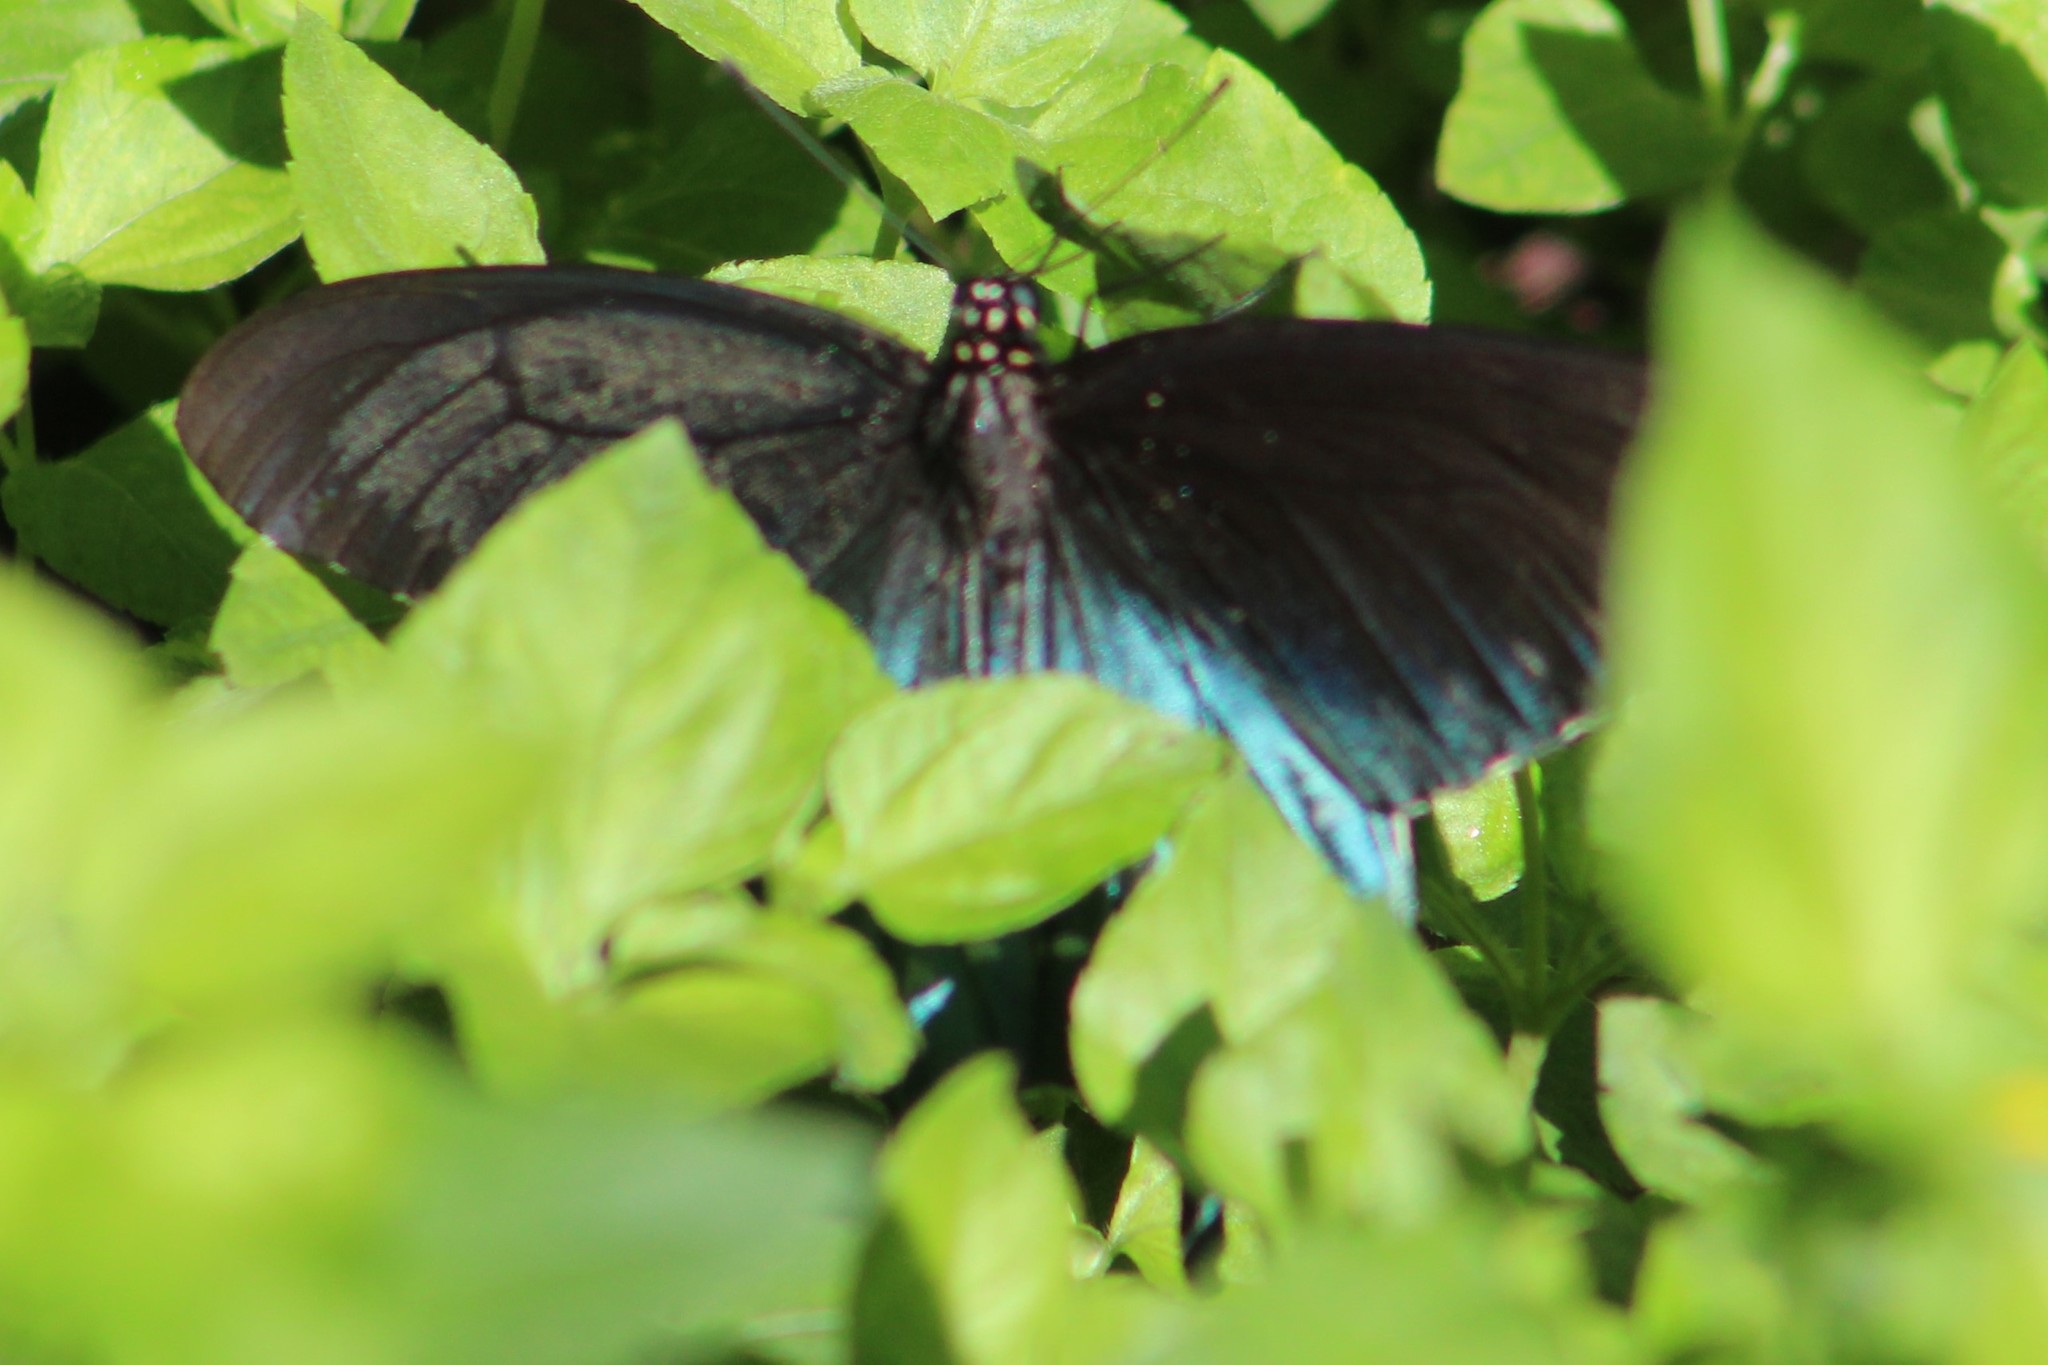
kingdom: Animalia
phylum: Arthropoda
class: Insecta
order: Lepidoptera
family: Papilionidae
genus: Battus
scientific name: Battus philenor
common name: Pipevine swallowtail
